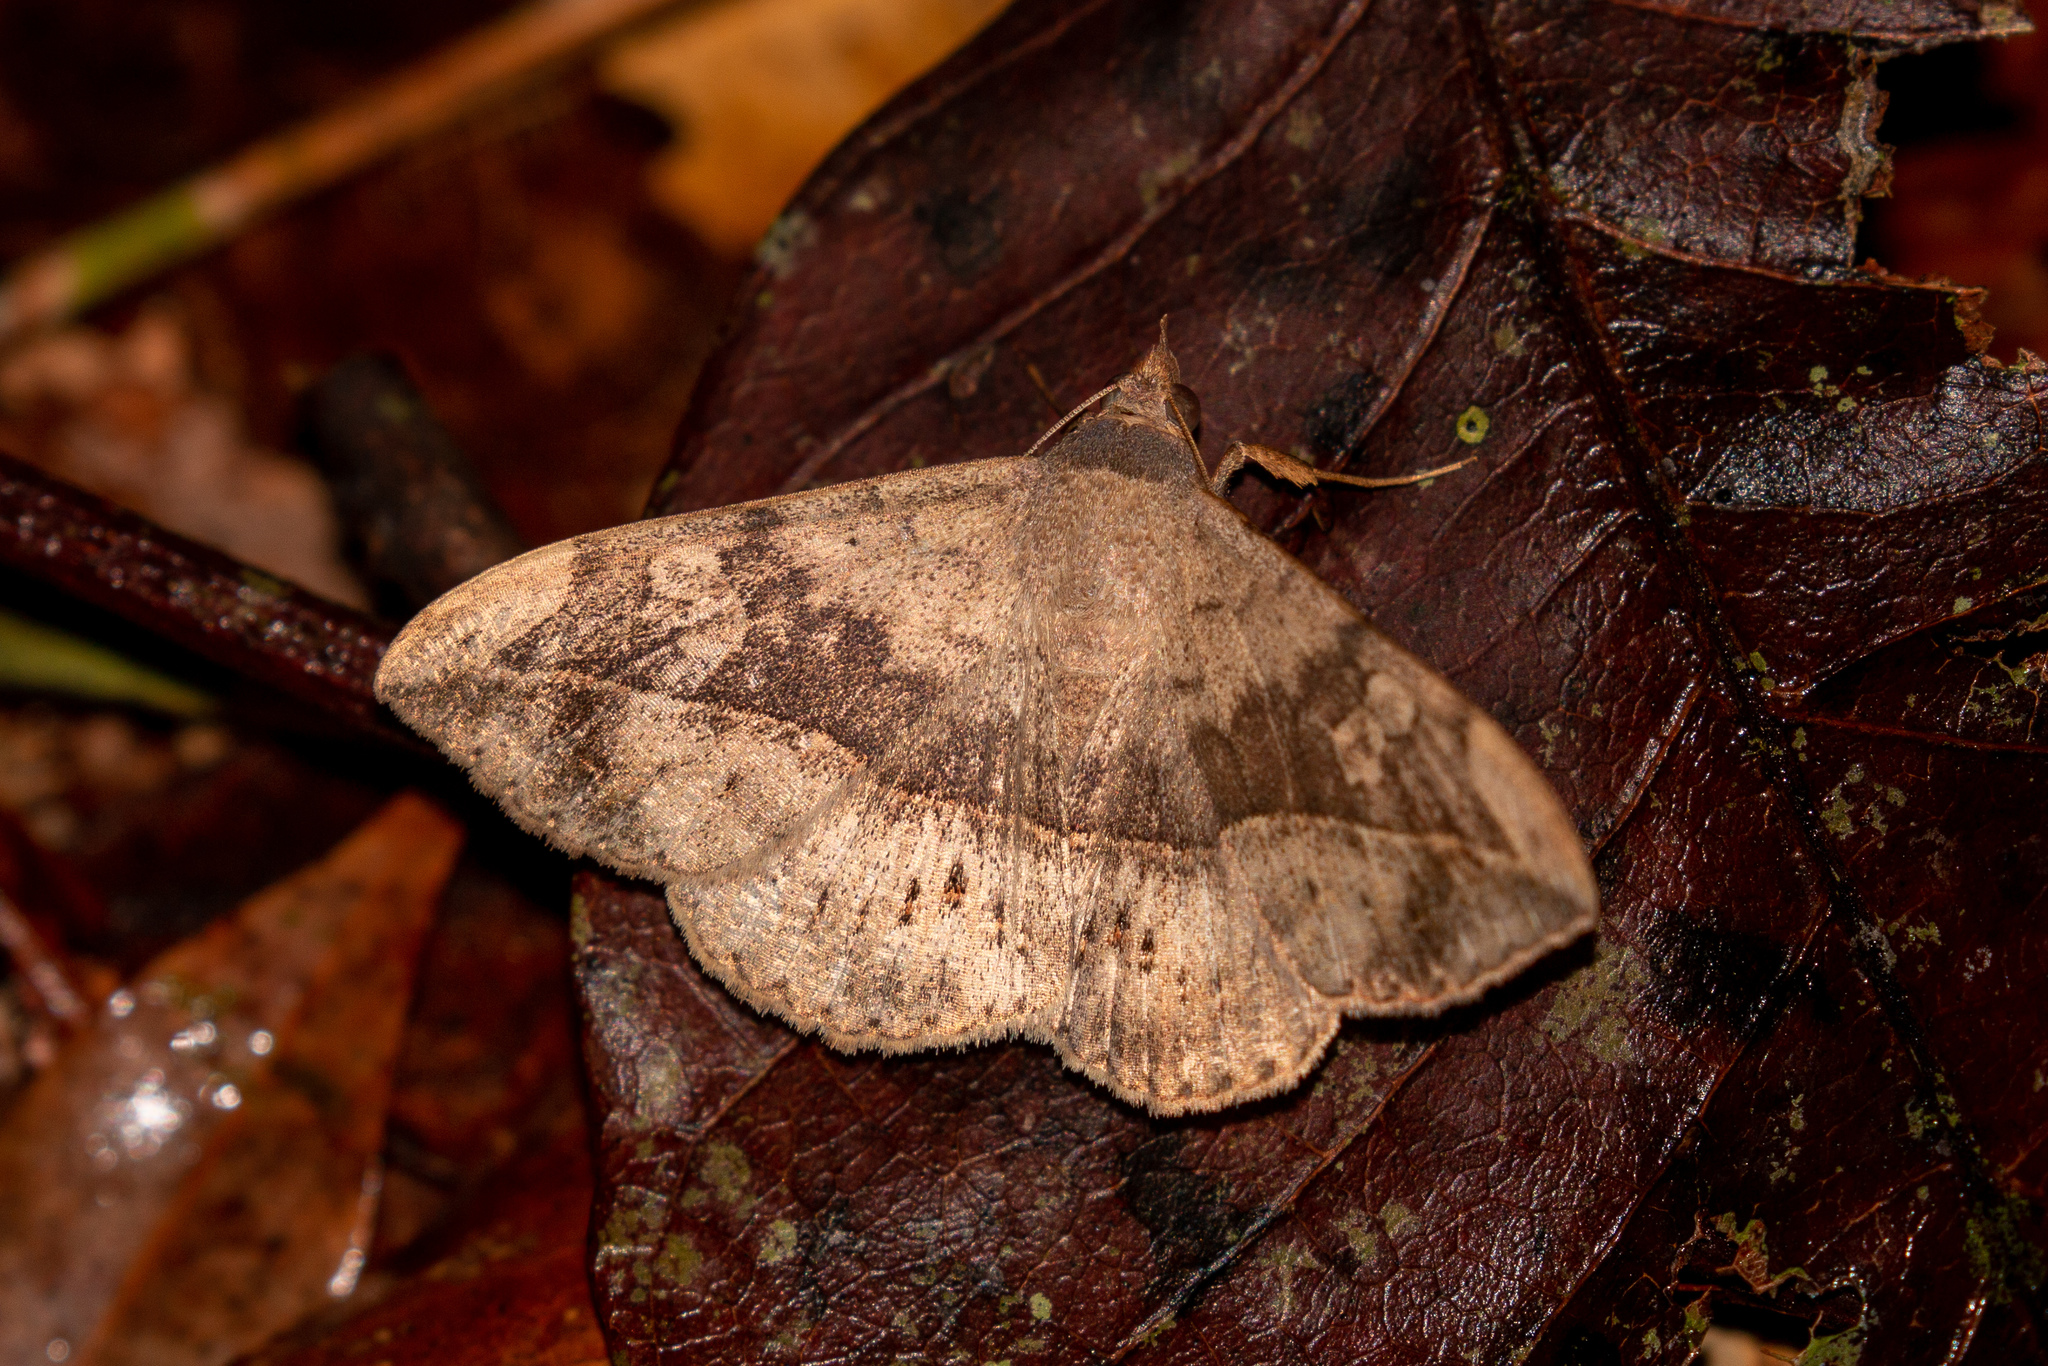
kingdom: Animalia
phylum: Arthropoda
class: Insecta
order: Lepidoptera
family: Erebidae
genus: Anticarsia
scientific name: Anticarsia gemmatalis
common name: Cutworm moth
